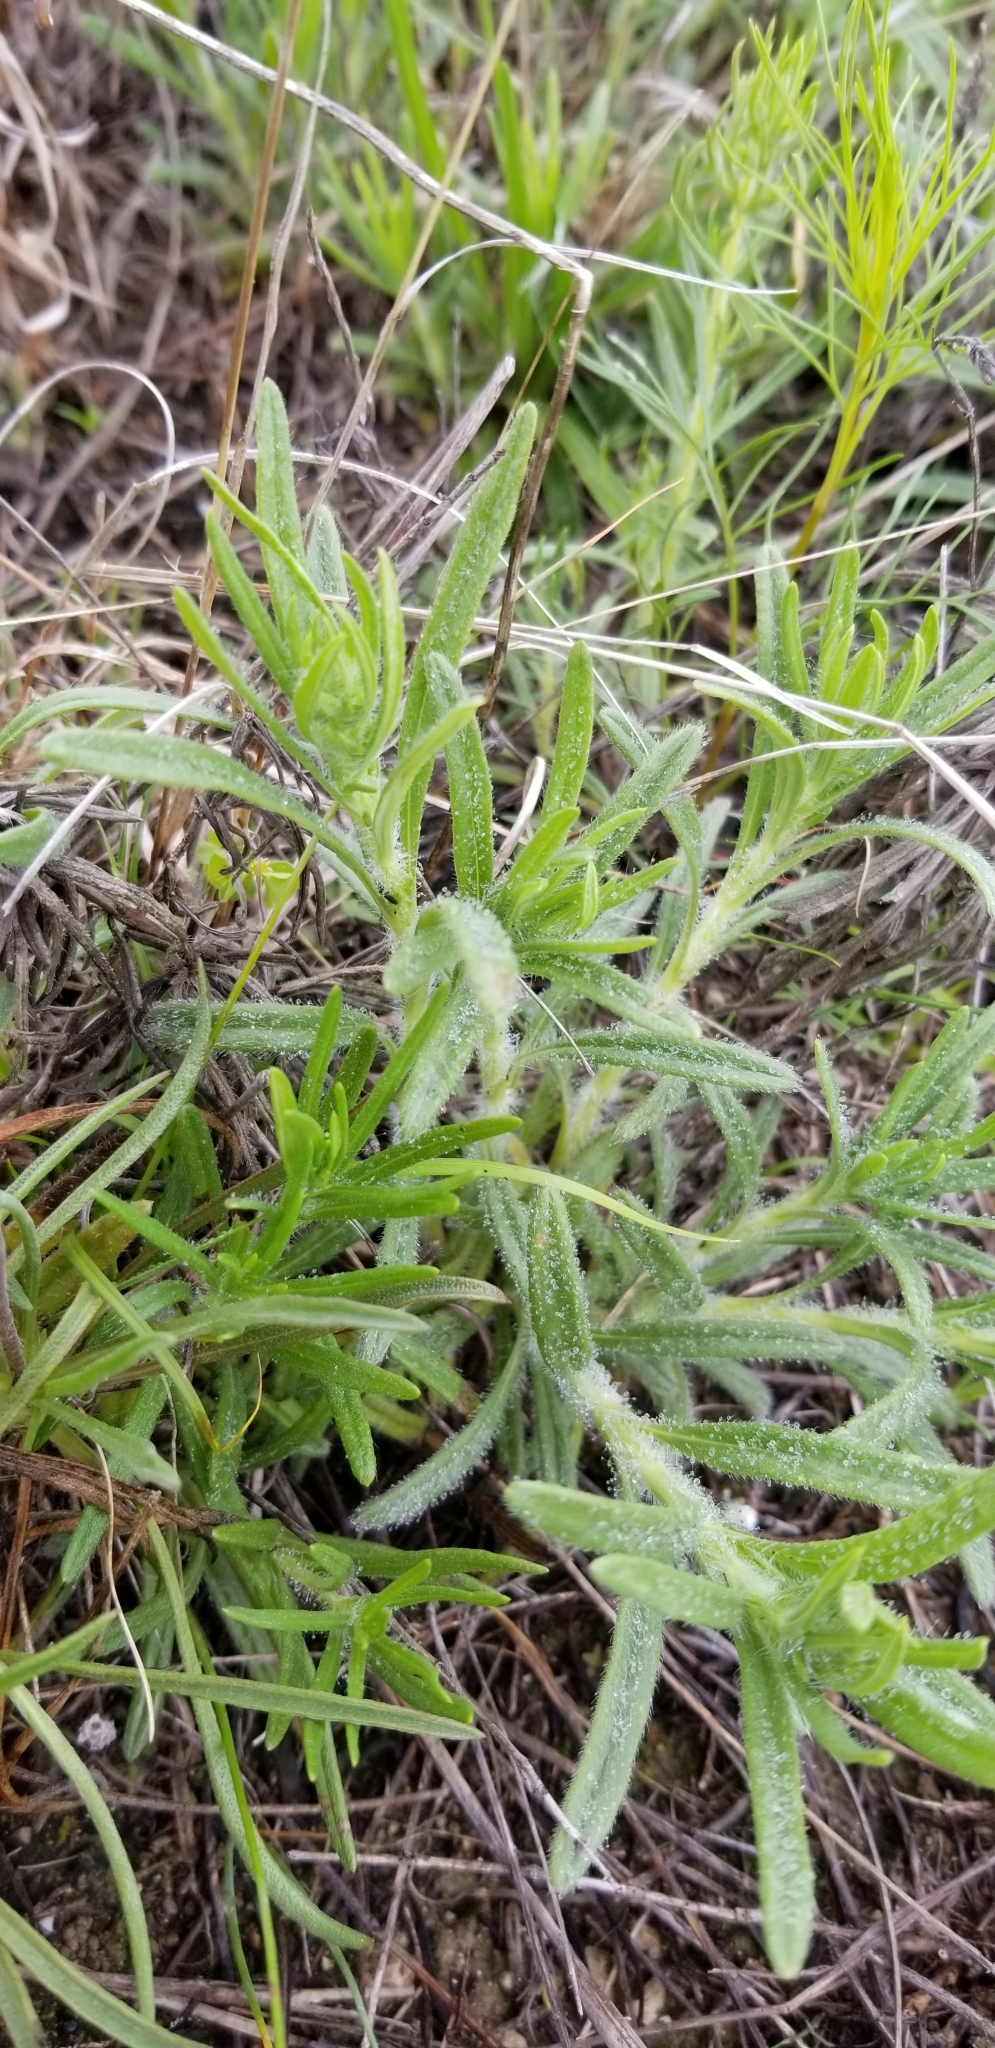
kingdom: Plantae
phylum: Tracheophyta
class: Magnoliopsida
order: Asterales
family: Asteraceae
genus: Tetraneuris
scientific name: Tetraneuris scaposa
